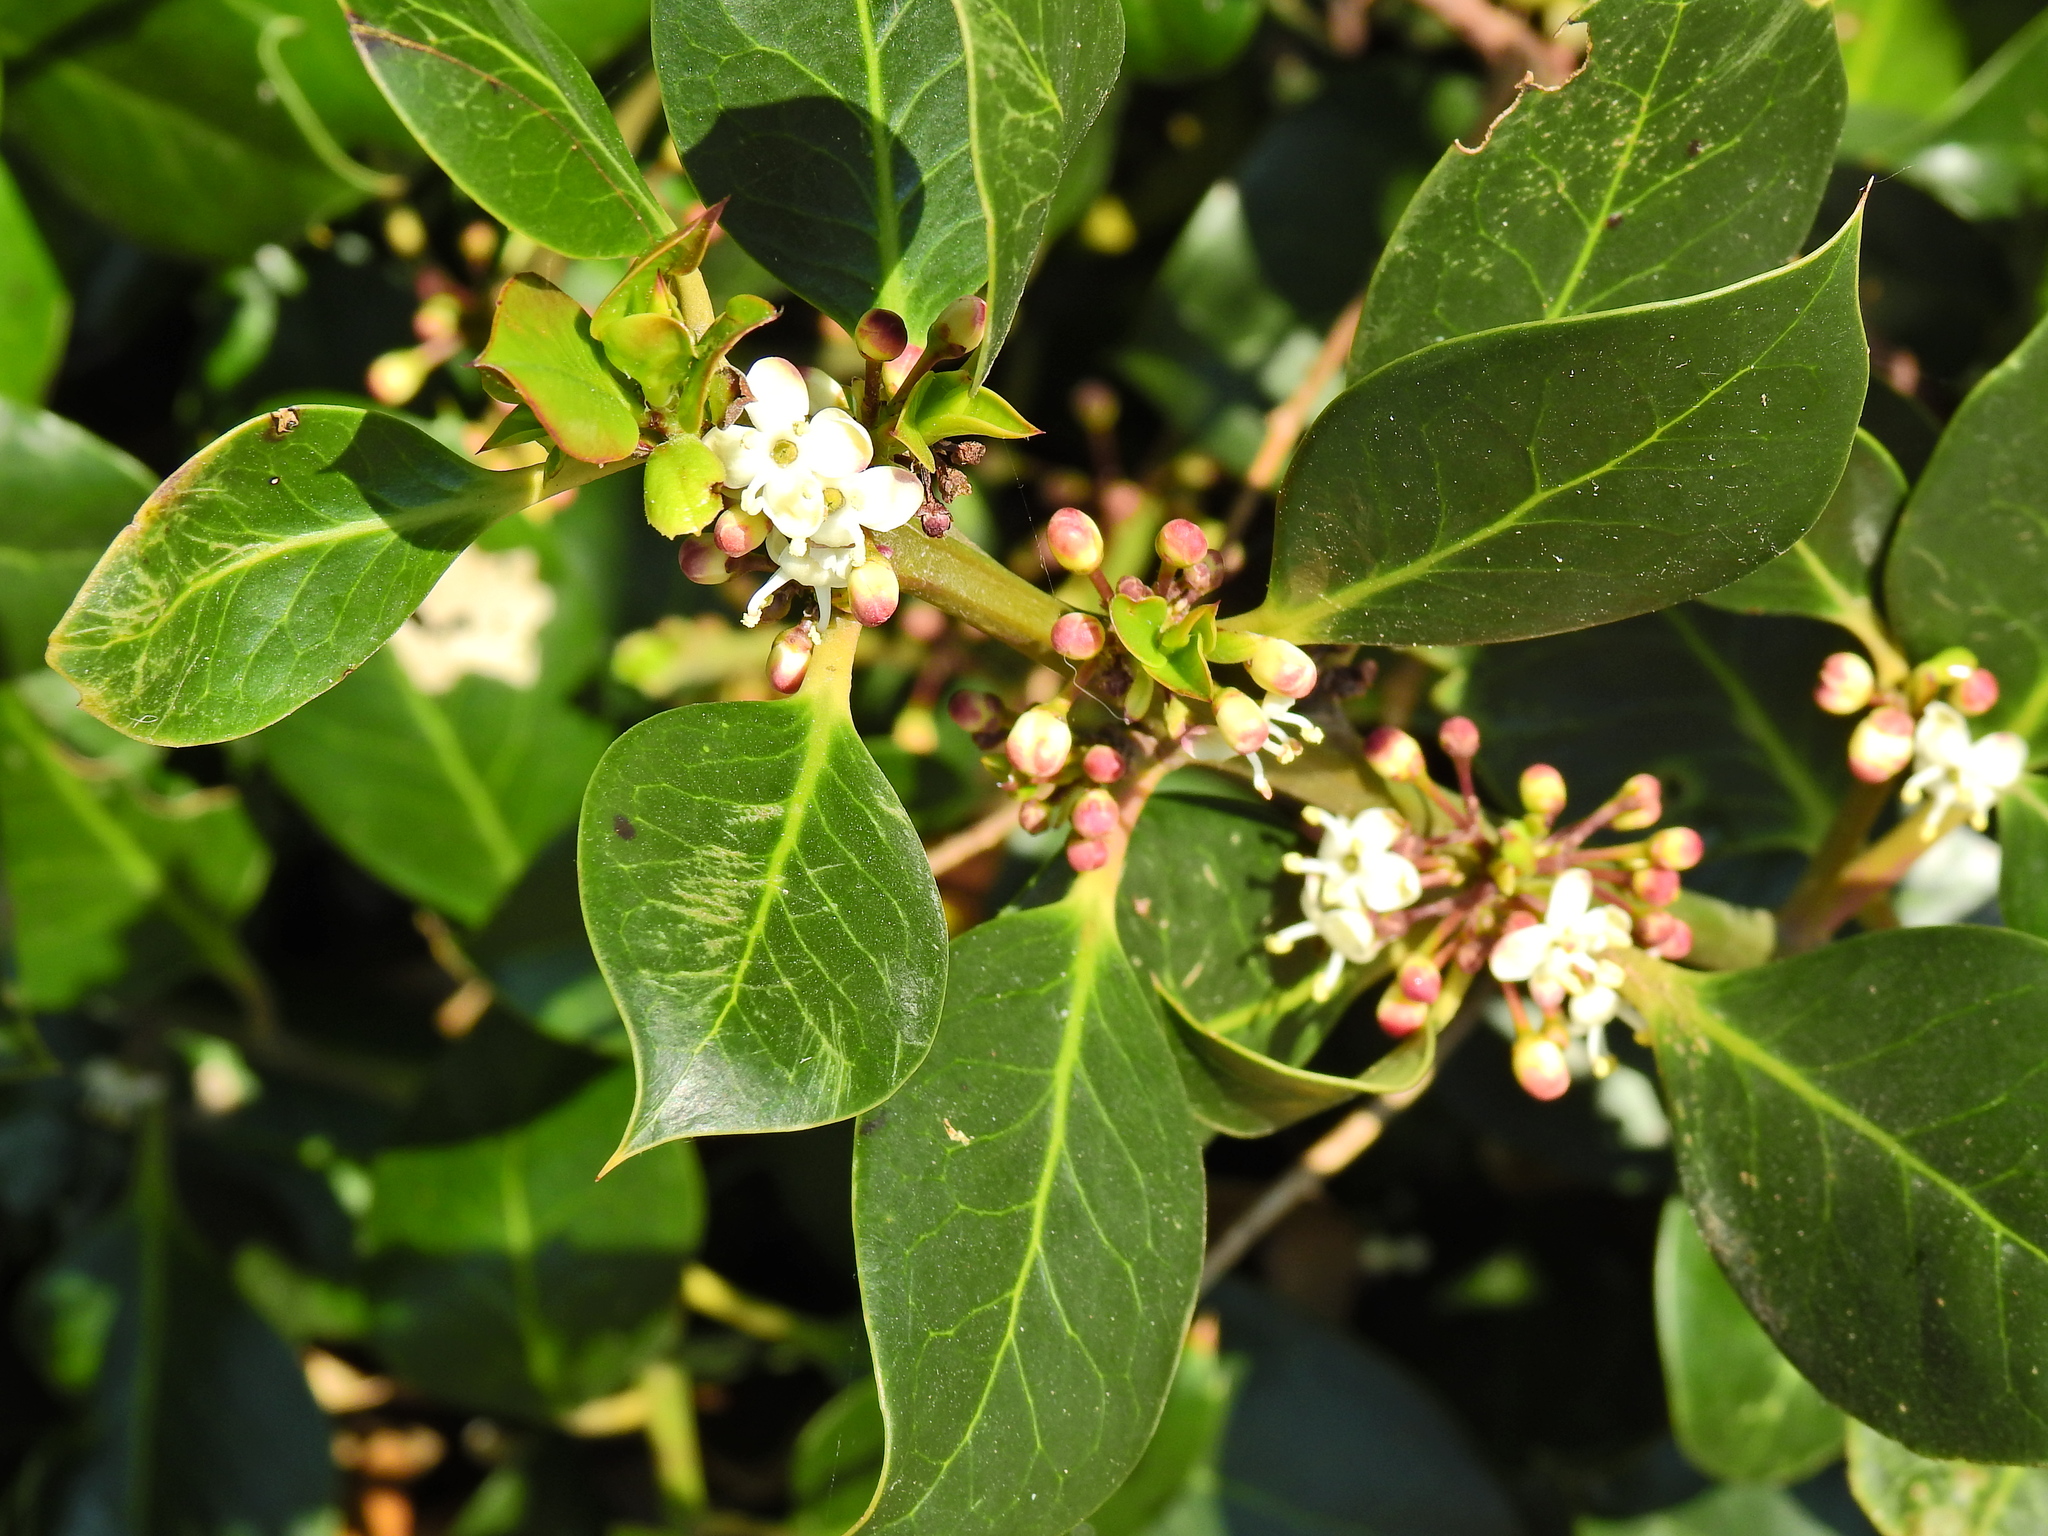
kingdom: Plantae
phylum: Tracheophyta
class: Magnoliopsida
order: Aquifoliales
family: Aquifoliaceae
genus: Ilex
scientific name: Ilex aquifolium
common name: English holly
